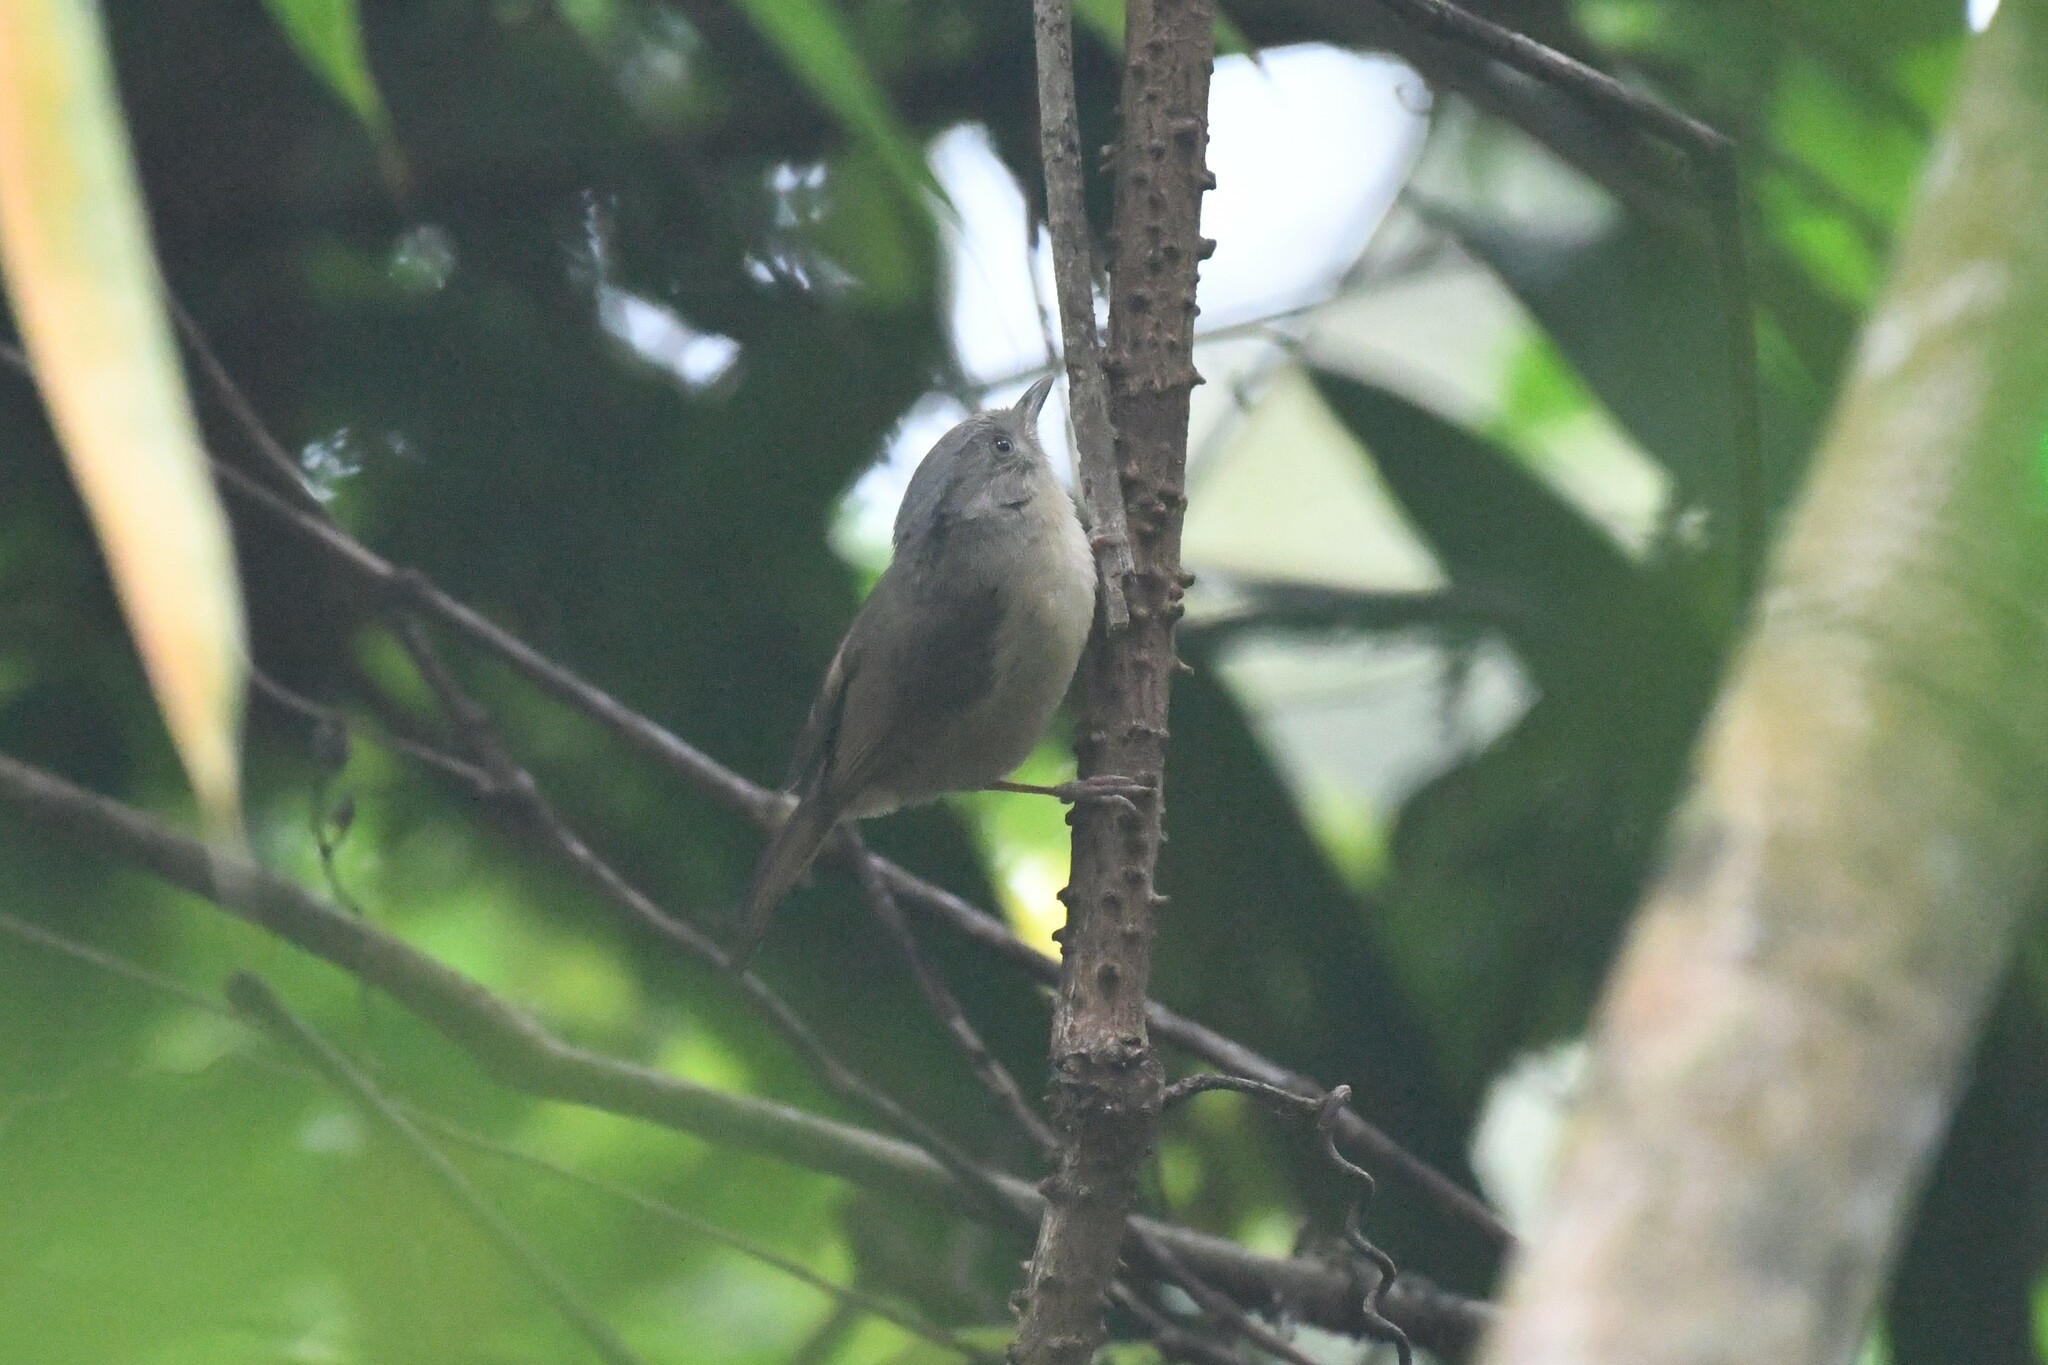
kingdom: Animalia
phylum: Chordata
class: Aves
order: Passeriformes
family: Pellorneidae
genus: Alcippe
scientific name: Alcippe poioicephala
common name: Brown-cheeked fulvetta
